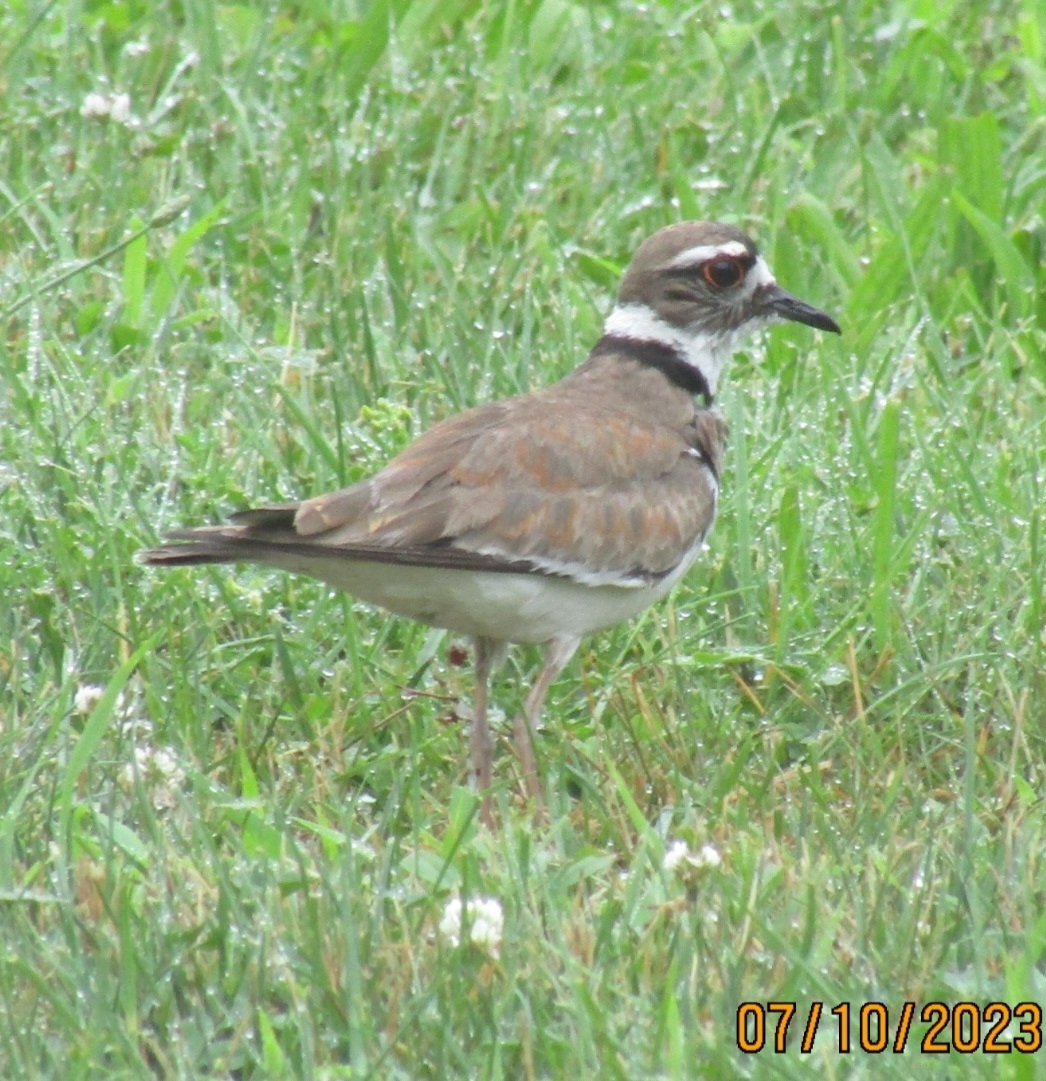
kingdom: Animalia
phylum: Chordata
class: Aves
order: Charadriiformes
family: Charadriidae
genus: Charadrius
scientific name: Charadrius vociferus
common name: Killdeer
